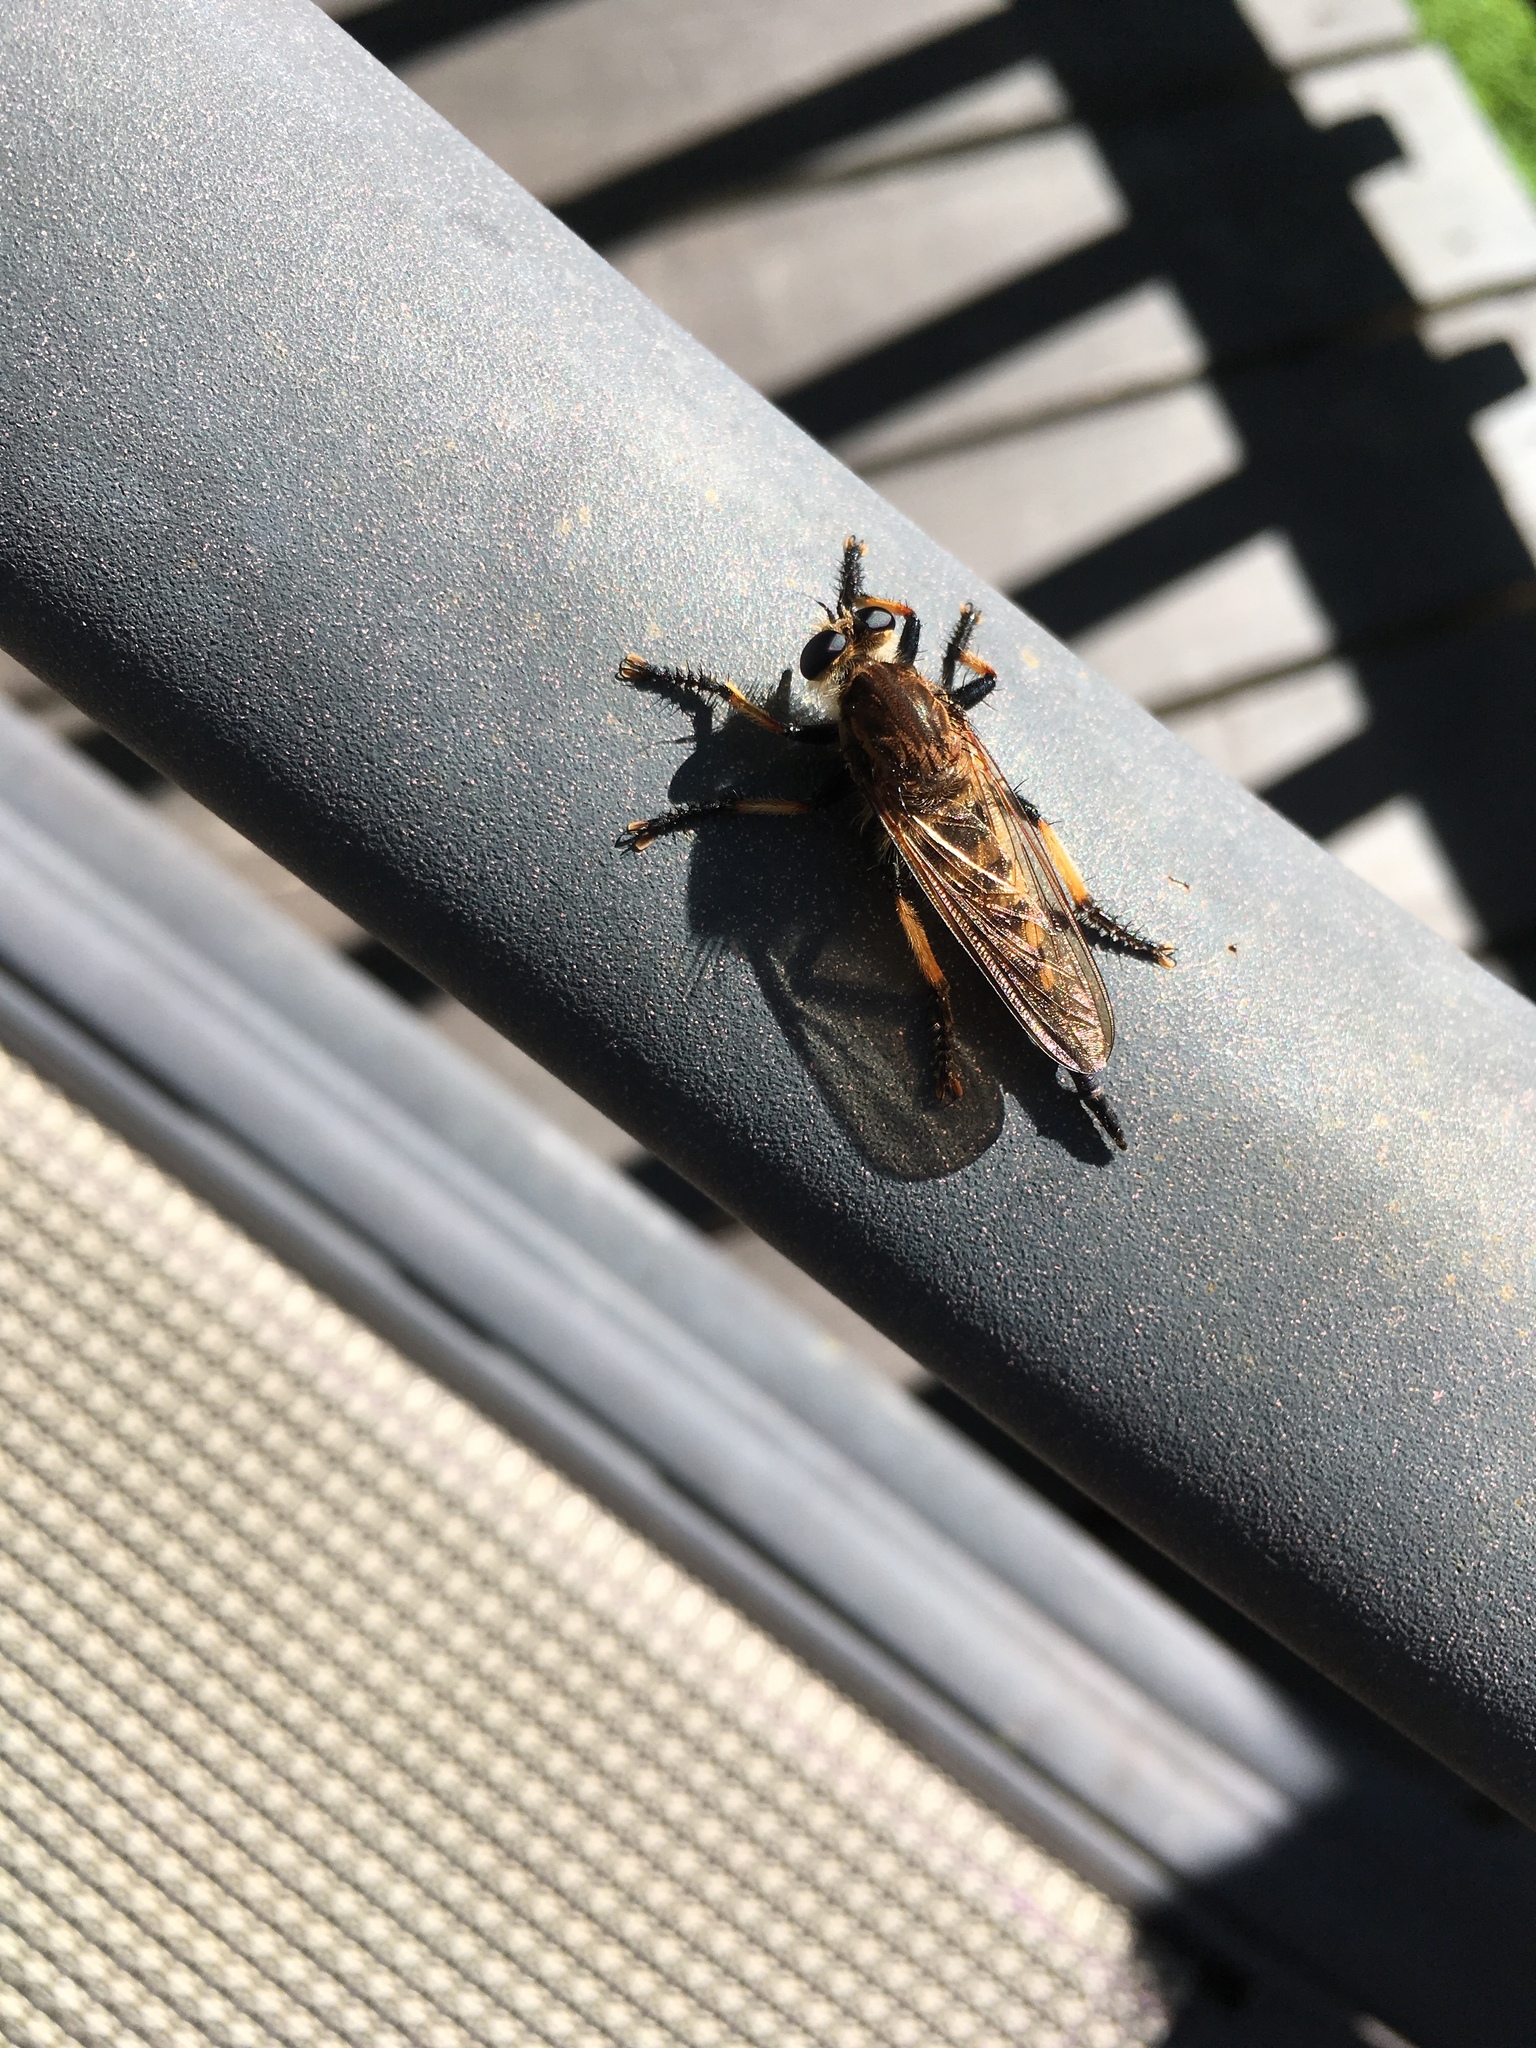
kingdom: Animalia
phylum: Arthropoda
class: Insecta
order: Diptera
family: Asilidae
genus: Promachus
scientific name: Promachus rufipes
